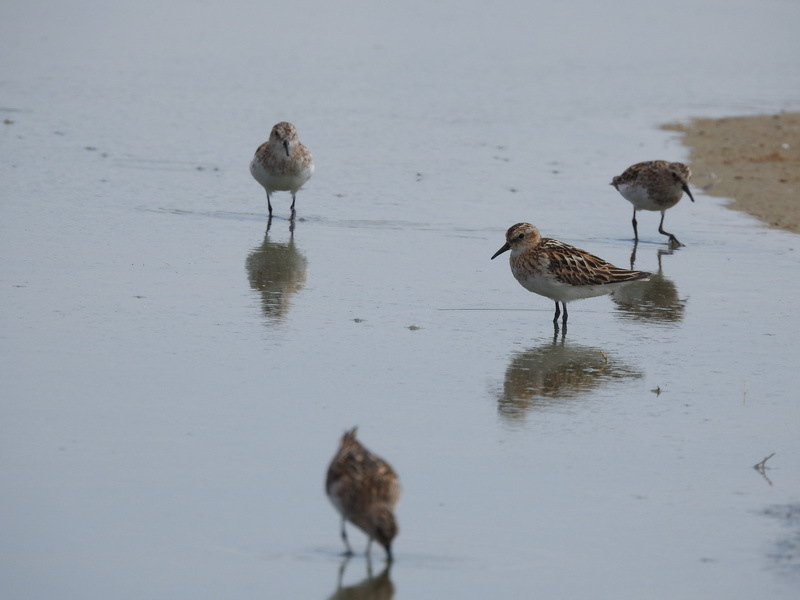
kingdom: Animalia
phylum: Chordata
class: Aves
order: Charadriiformes
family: Scolopacidae
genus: Calidris
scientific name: Calidris minuta
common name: Little stint
